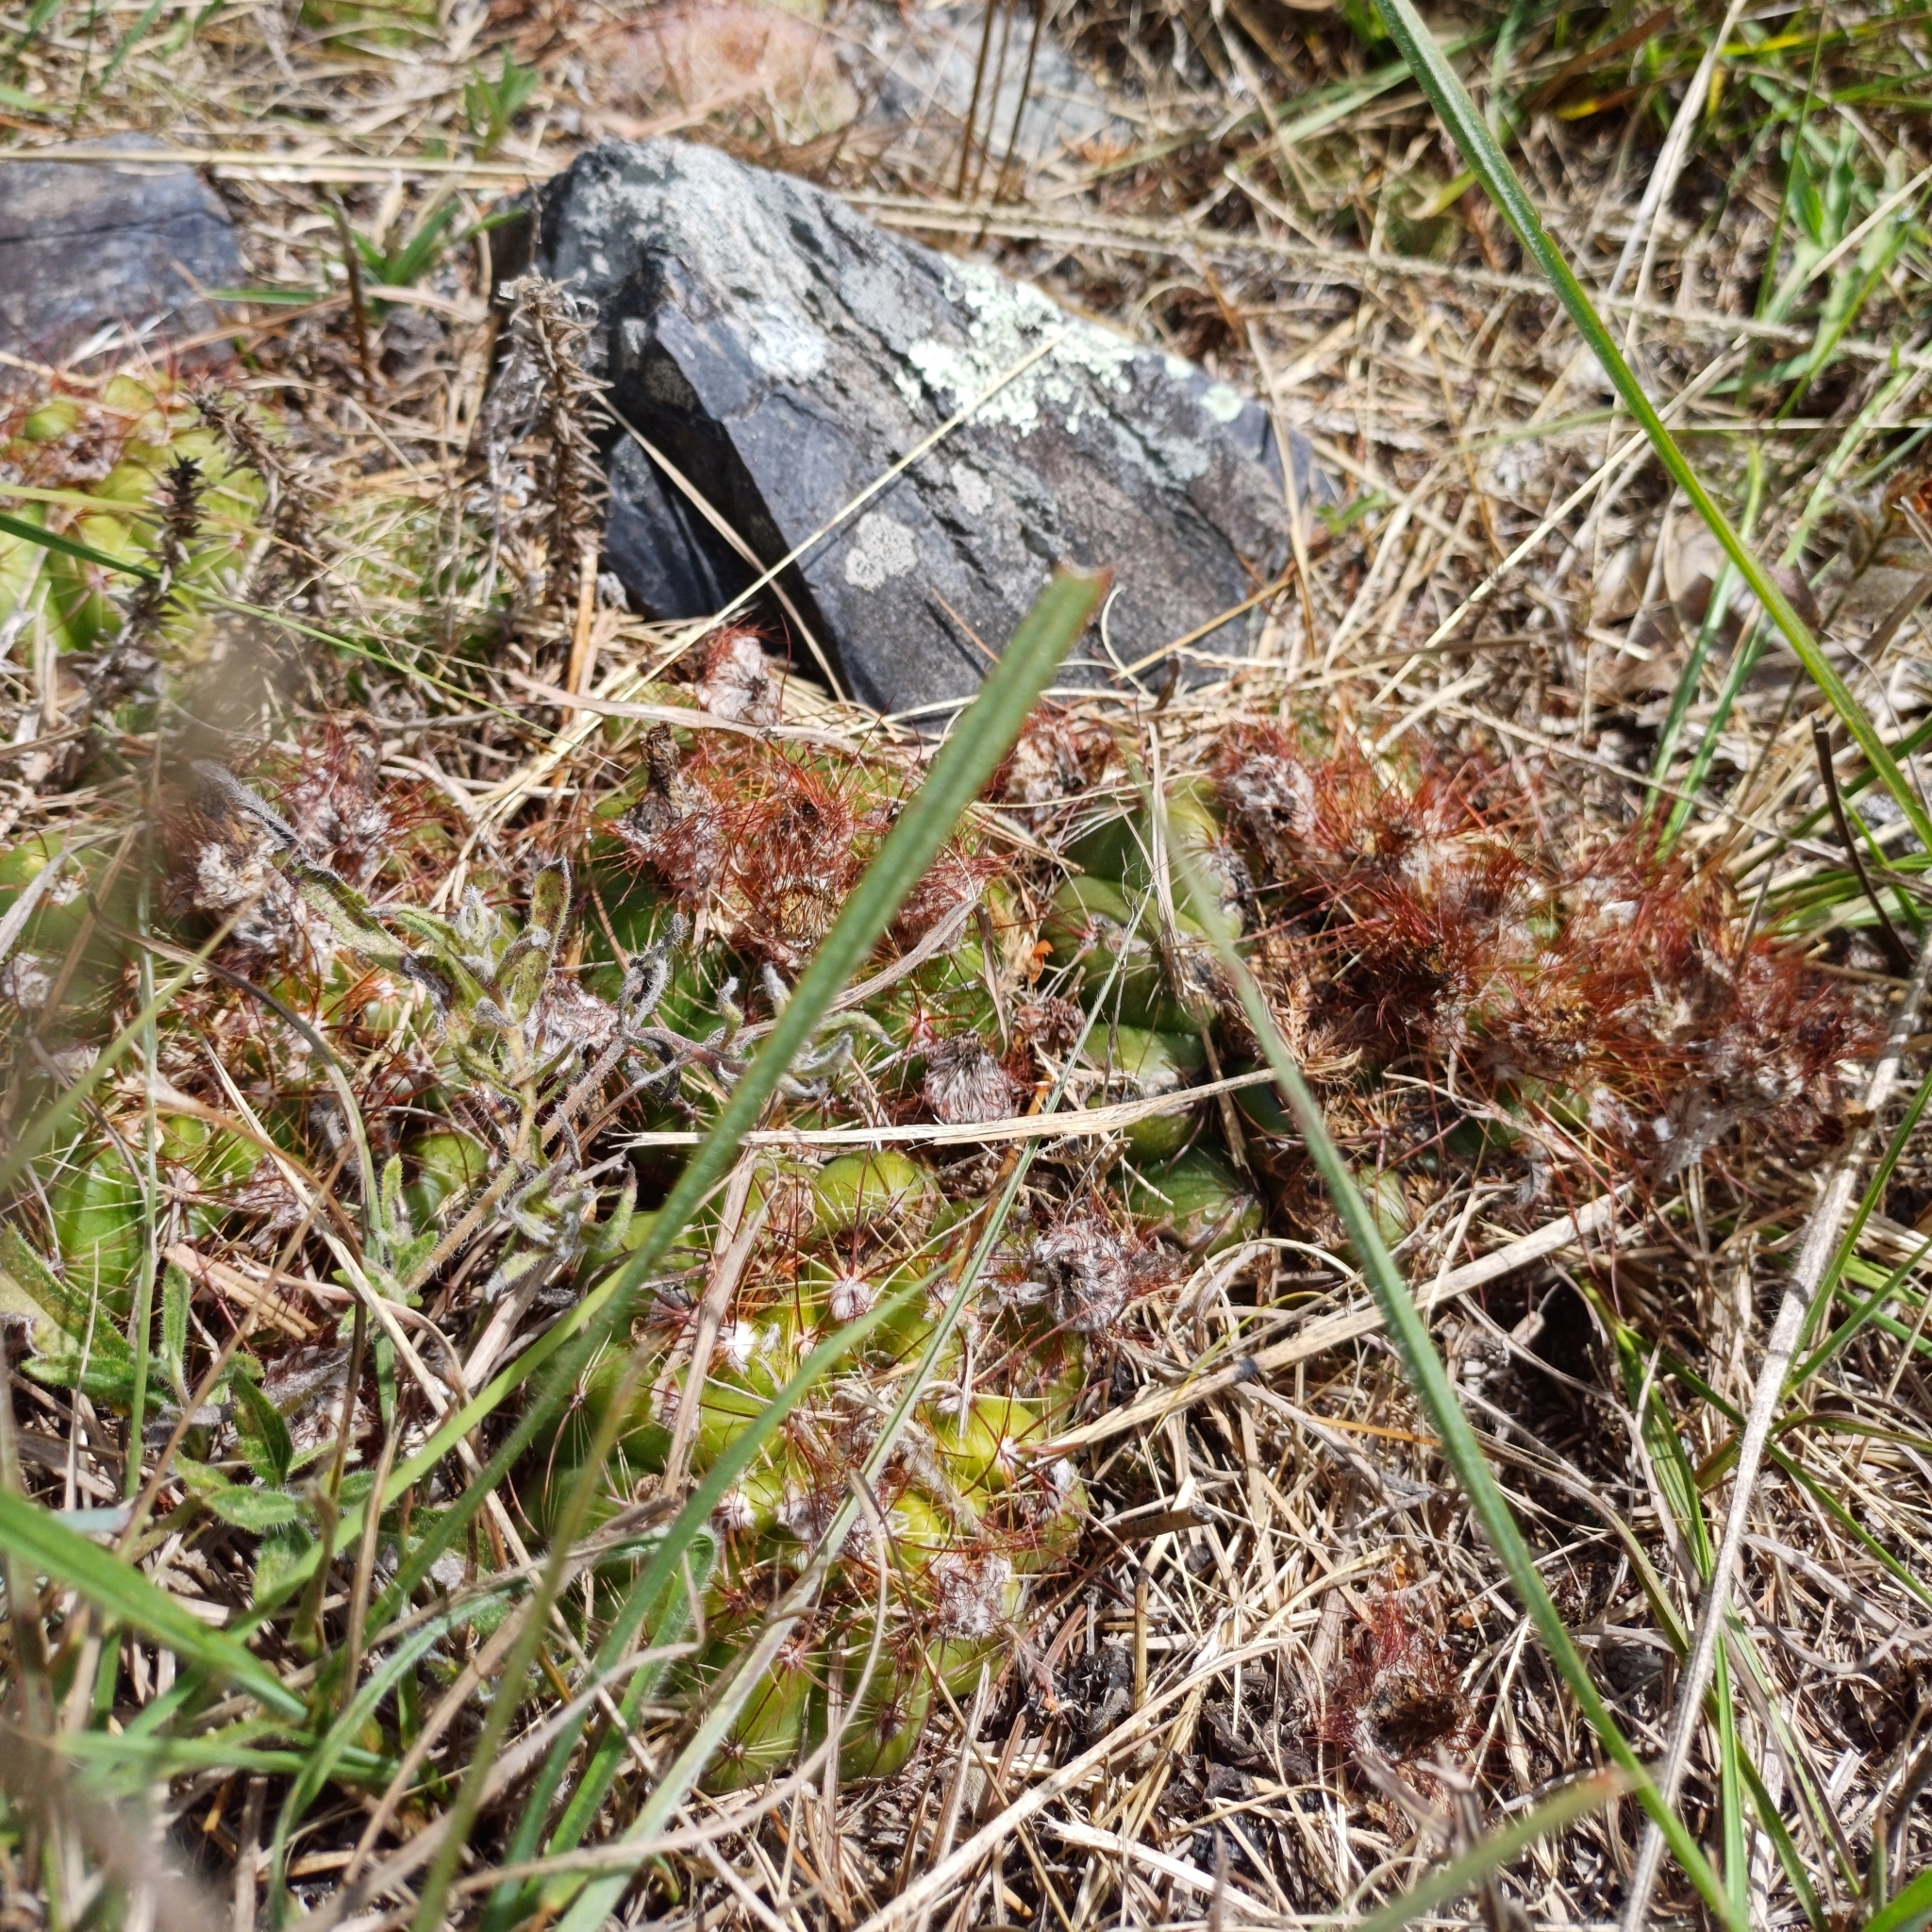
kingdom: Plantae
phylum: Tracheophyta
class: Magnoliopsida
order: Caryophyllales
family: Cactaceae
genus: Parodia
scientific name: Parodia ottonis
